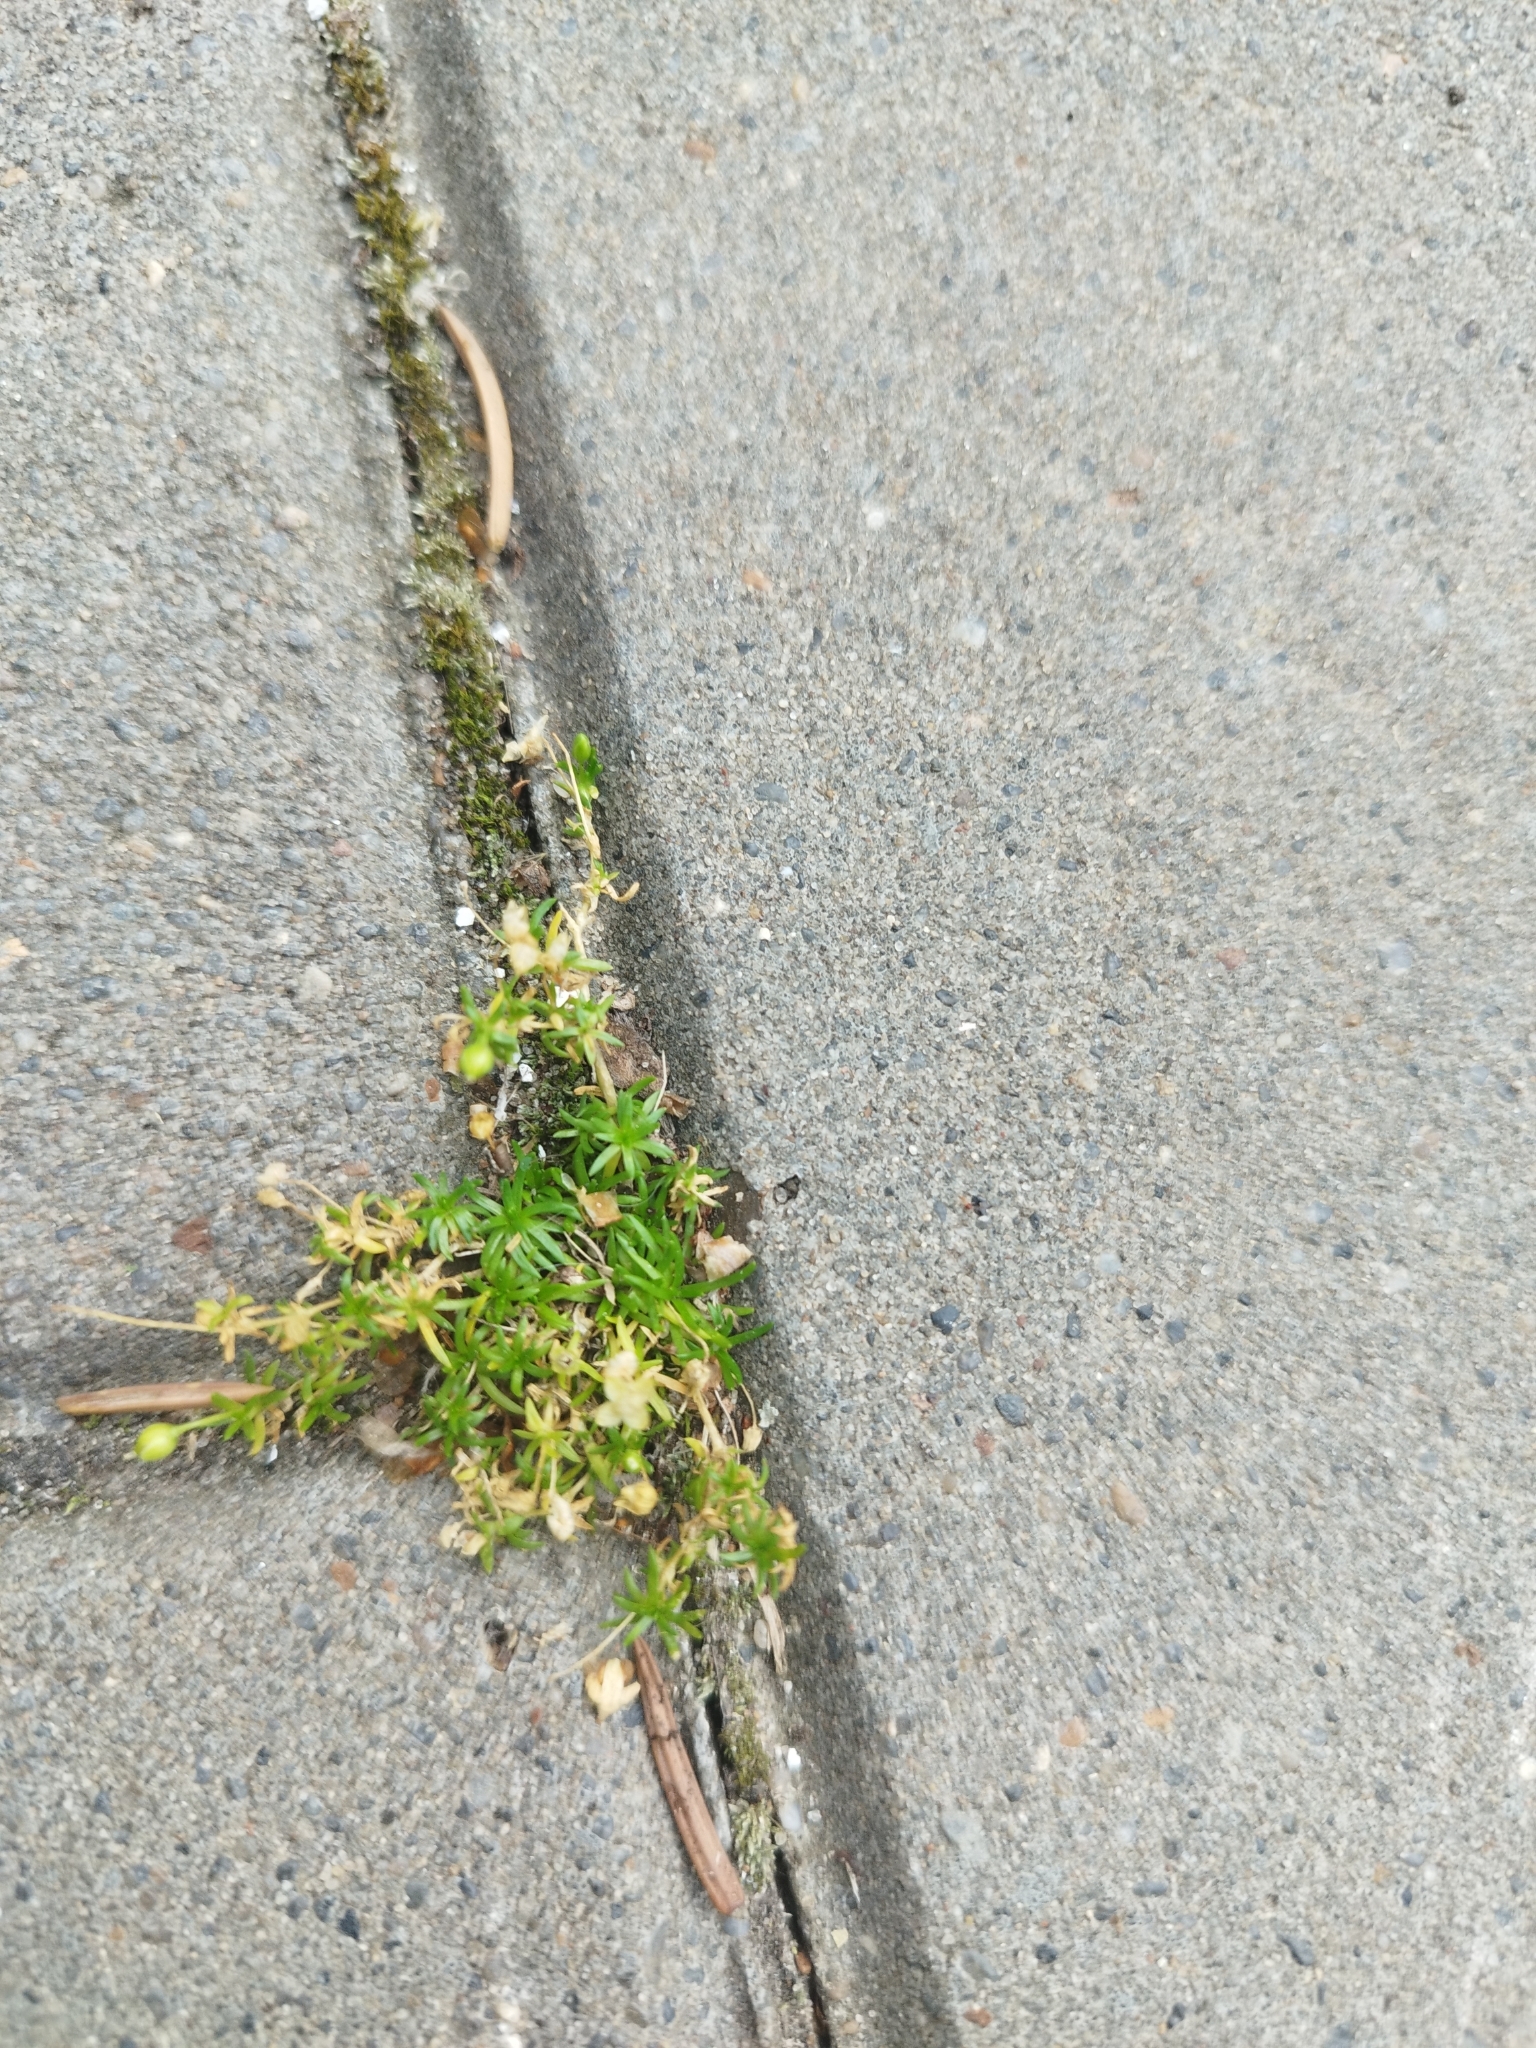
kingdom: Plantae
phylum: Tracheophyta
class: Magnoliopsida
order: Caryophyllales
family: Caryophyllaceae
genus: Sagina
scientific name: Sagina procumbens
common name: Procumbent pearlwort
